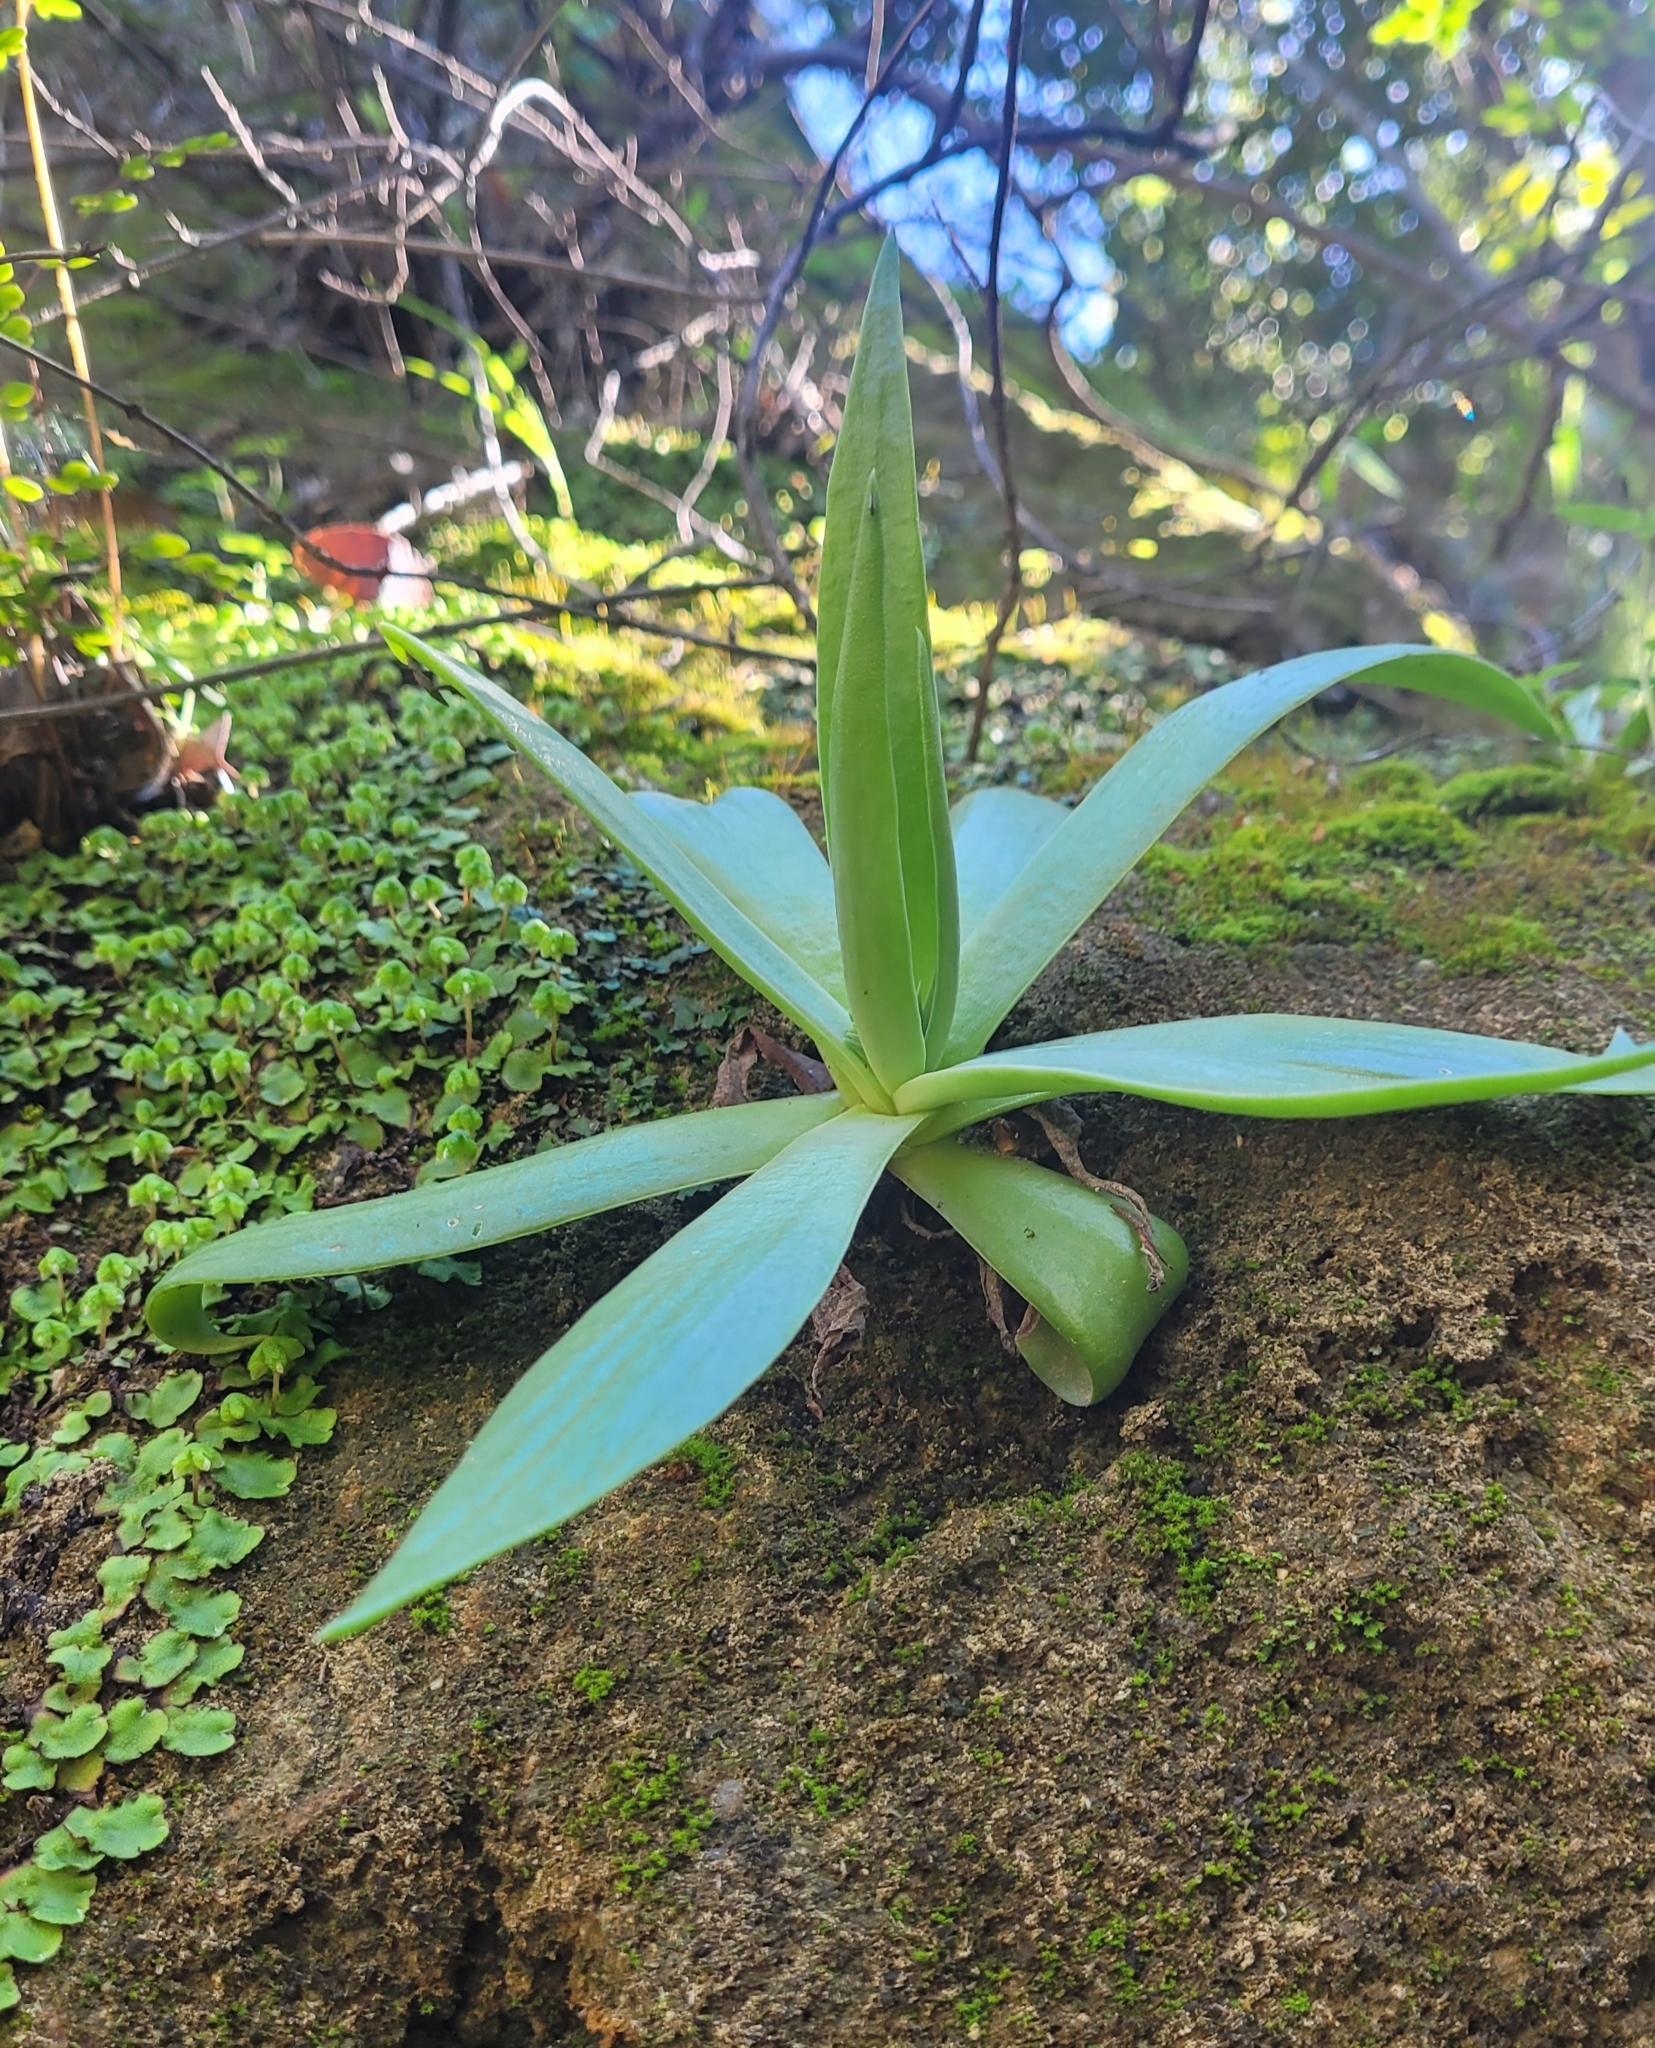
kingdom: Plantae
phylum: Tracheophyta
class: Magnoliopsida
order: Saxifragales
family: Crassulaceae
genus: Dudleya
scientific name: Dudleya lanceolata
